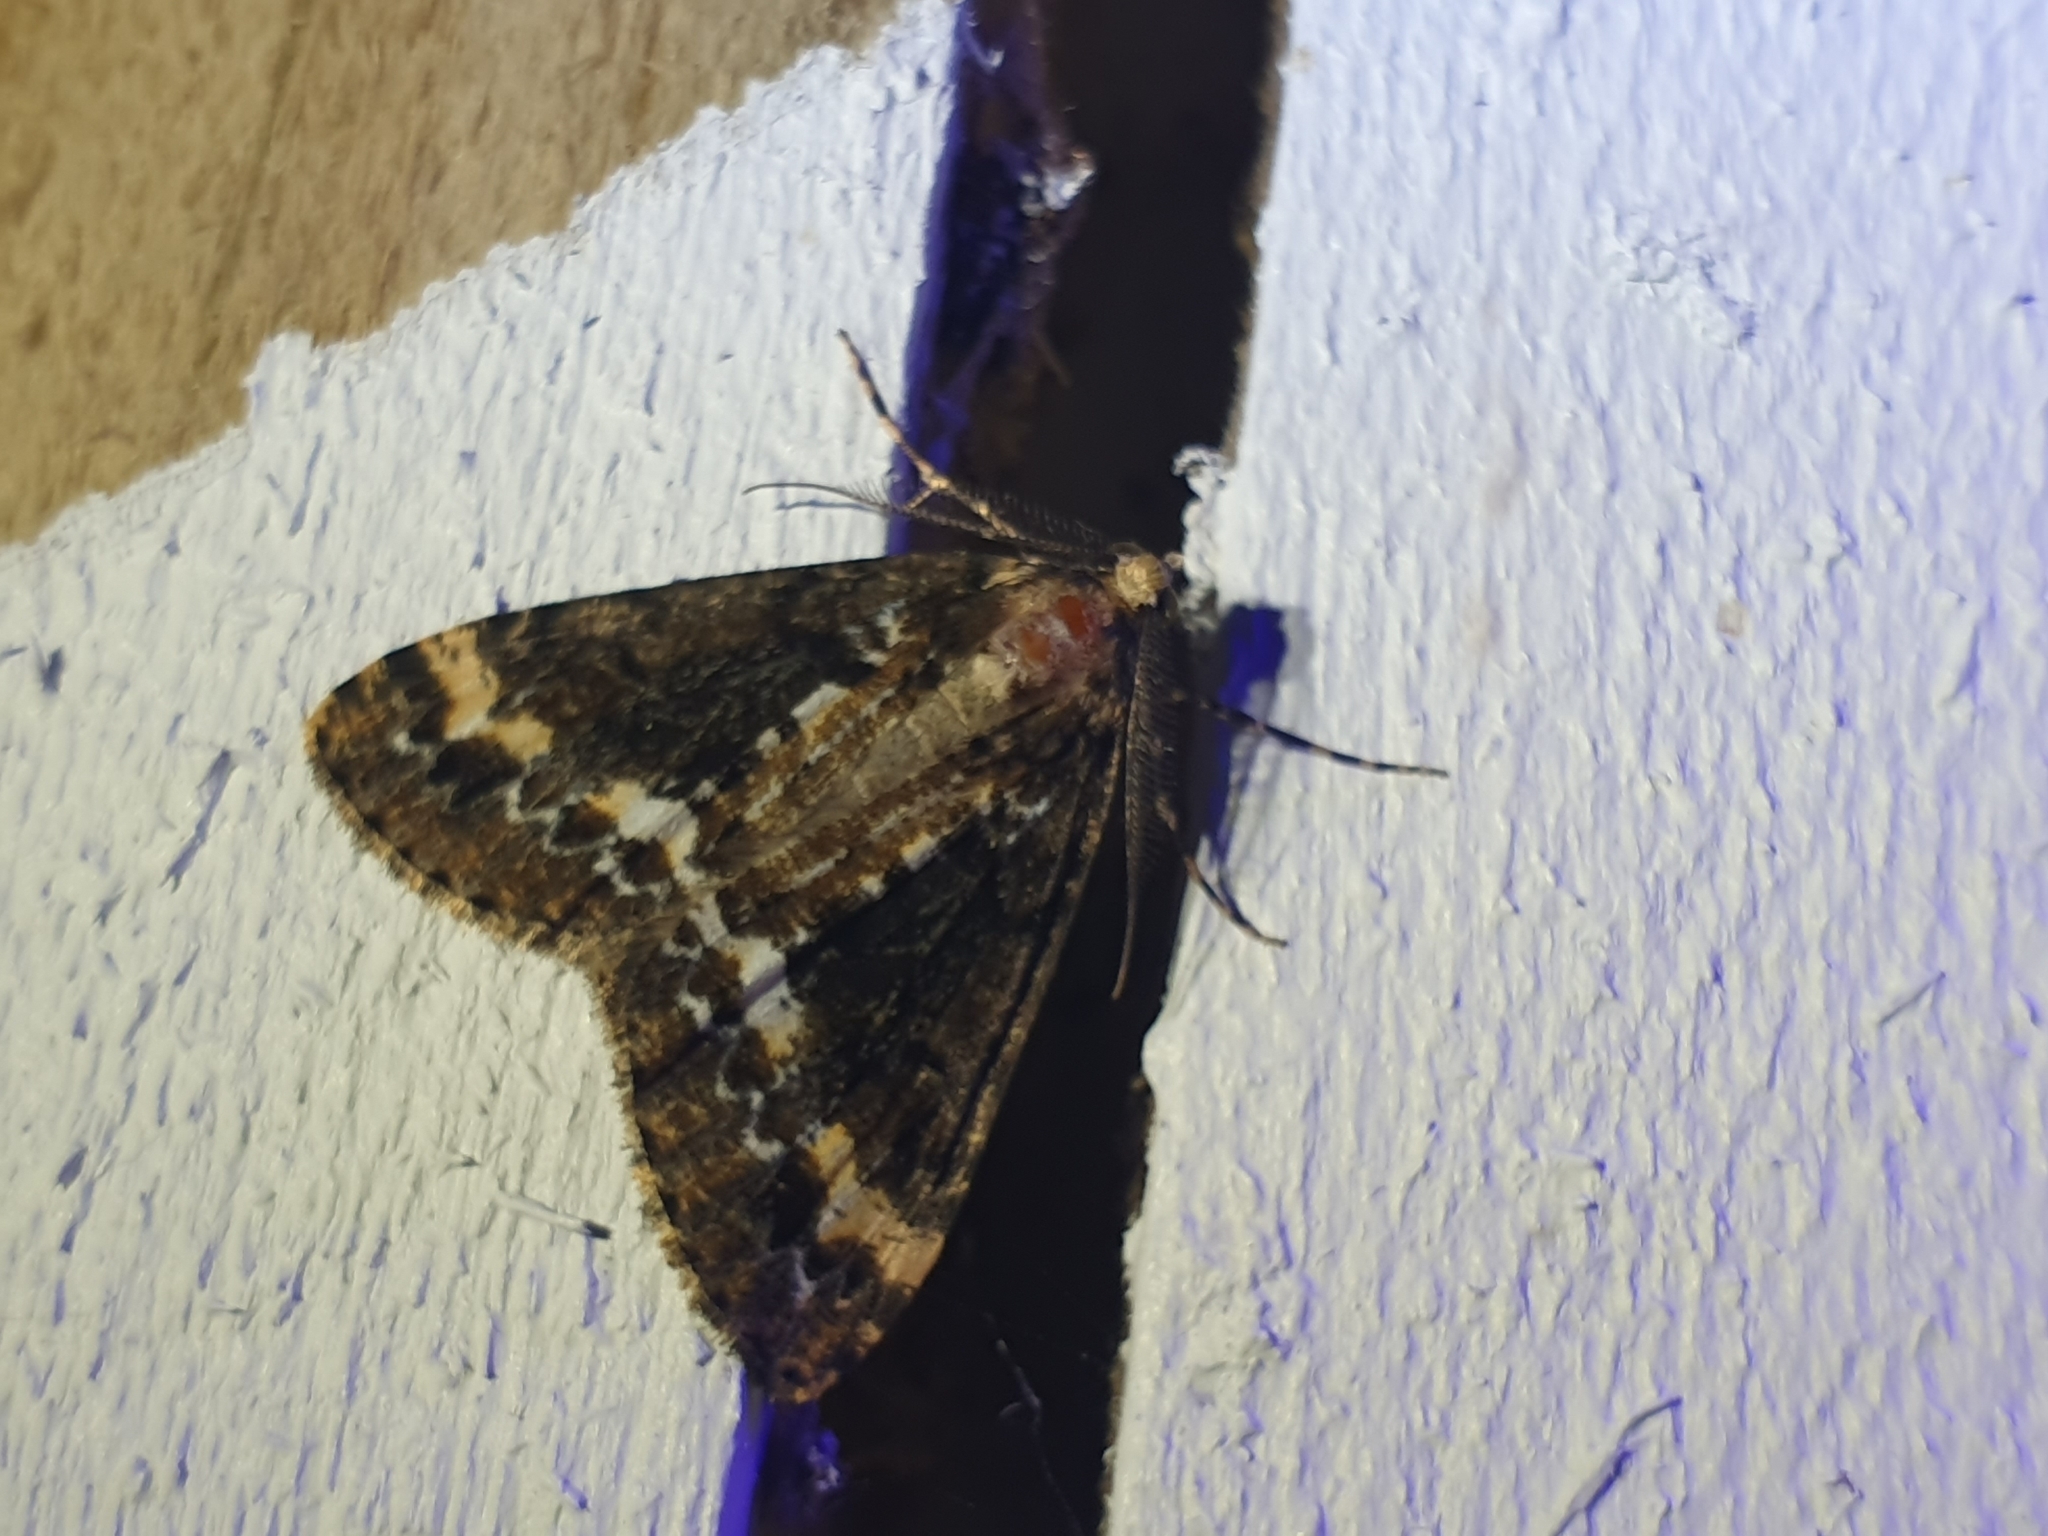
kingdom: Animalia
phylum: Arthropoda
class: Insecta
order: Lepidoptera
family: Geometridae
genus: Pseudocoremia
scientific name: Pseudocoremia leucelaea
